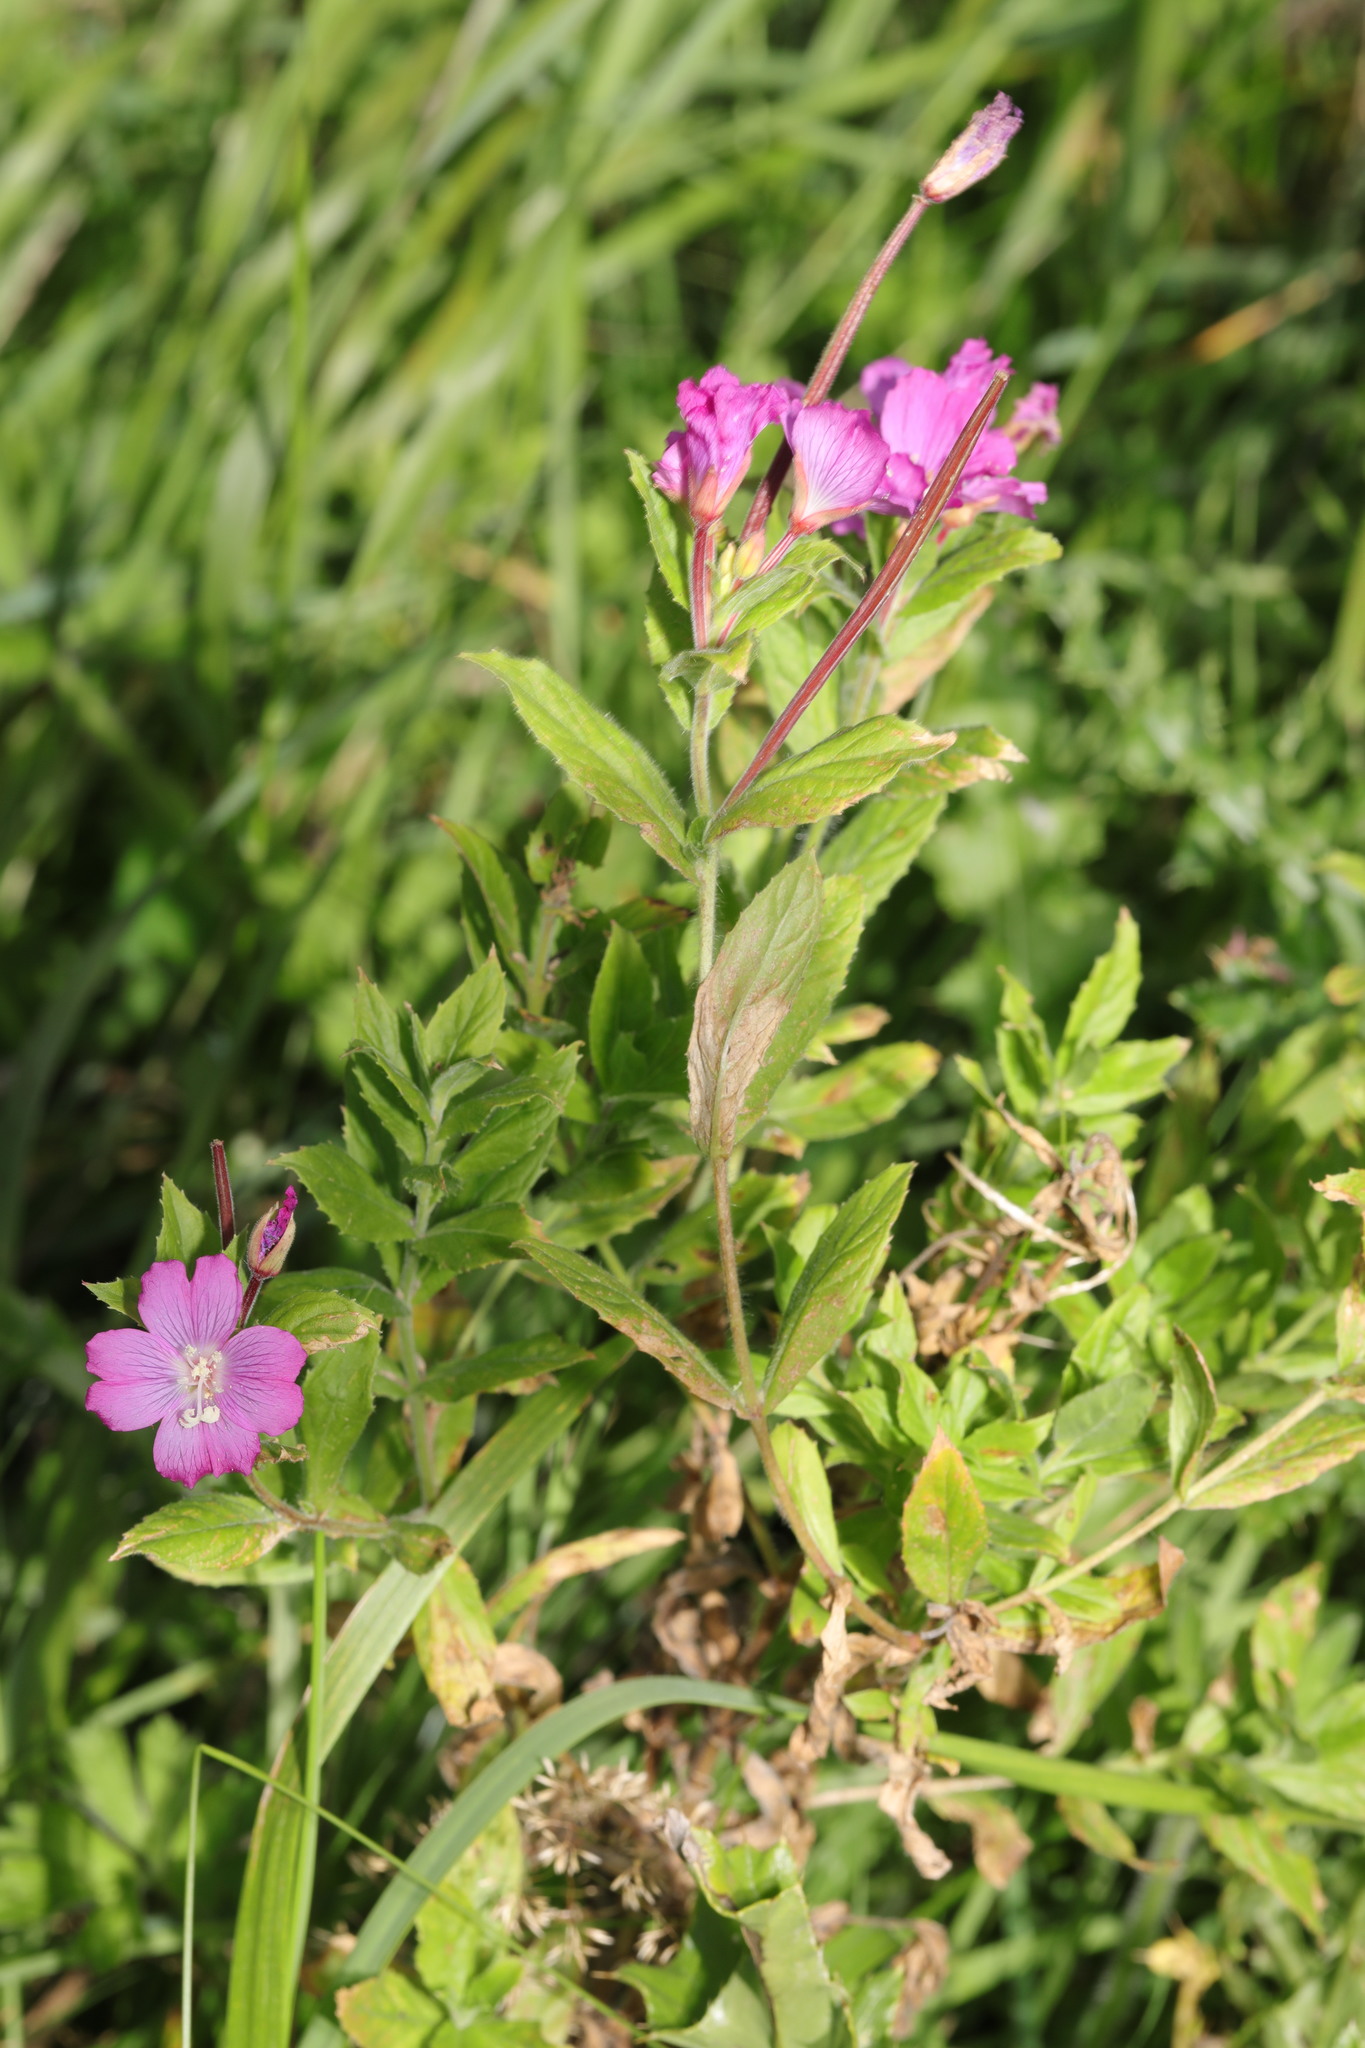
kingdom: Plantae
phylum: Tracheophyta
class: Magnoliopsida
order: Myrtales
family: Onagraceae
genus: Epilobium
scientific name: Epilobium hirsutum
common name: Great willowherb
